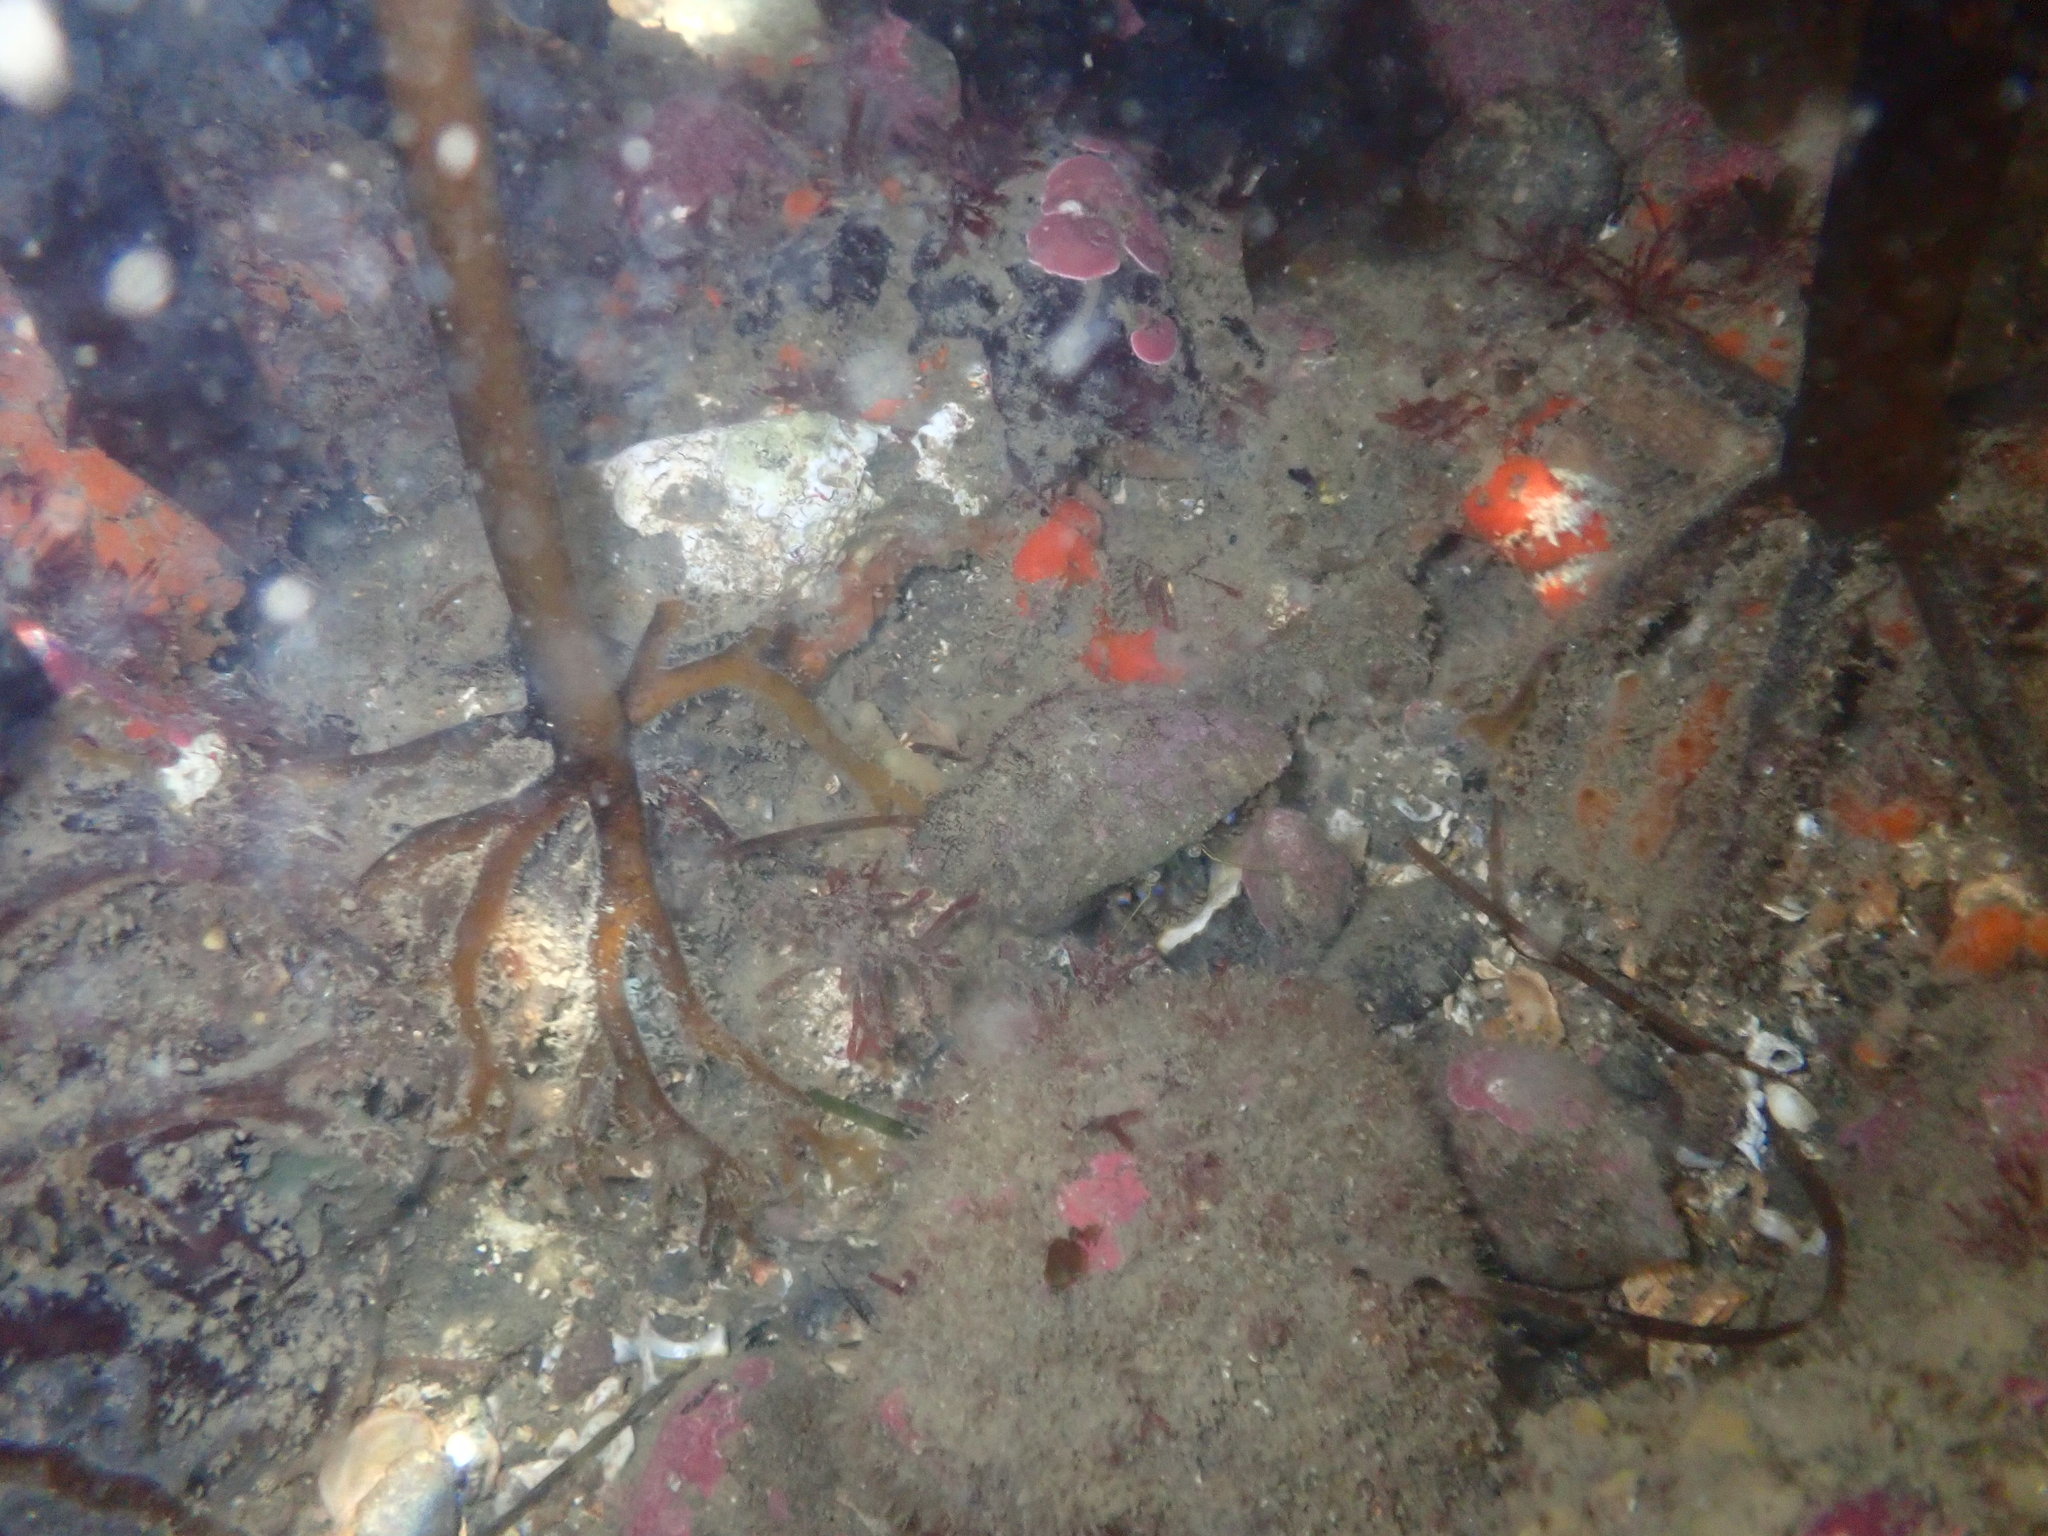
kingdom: Animalia
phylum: Arthropoda
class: Malacostraca
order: Decapoda
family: Paguridae
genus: Pagurus
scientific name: Pagurus novizealandiae
